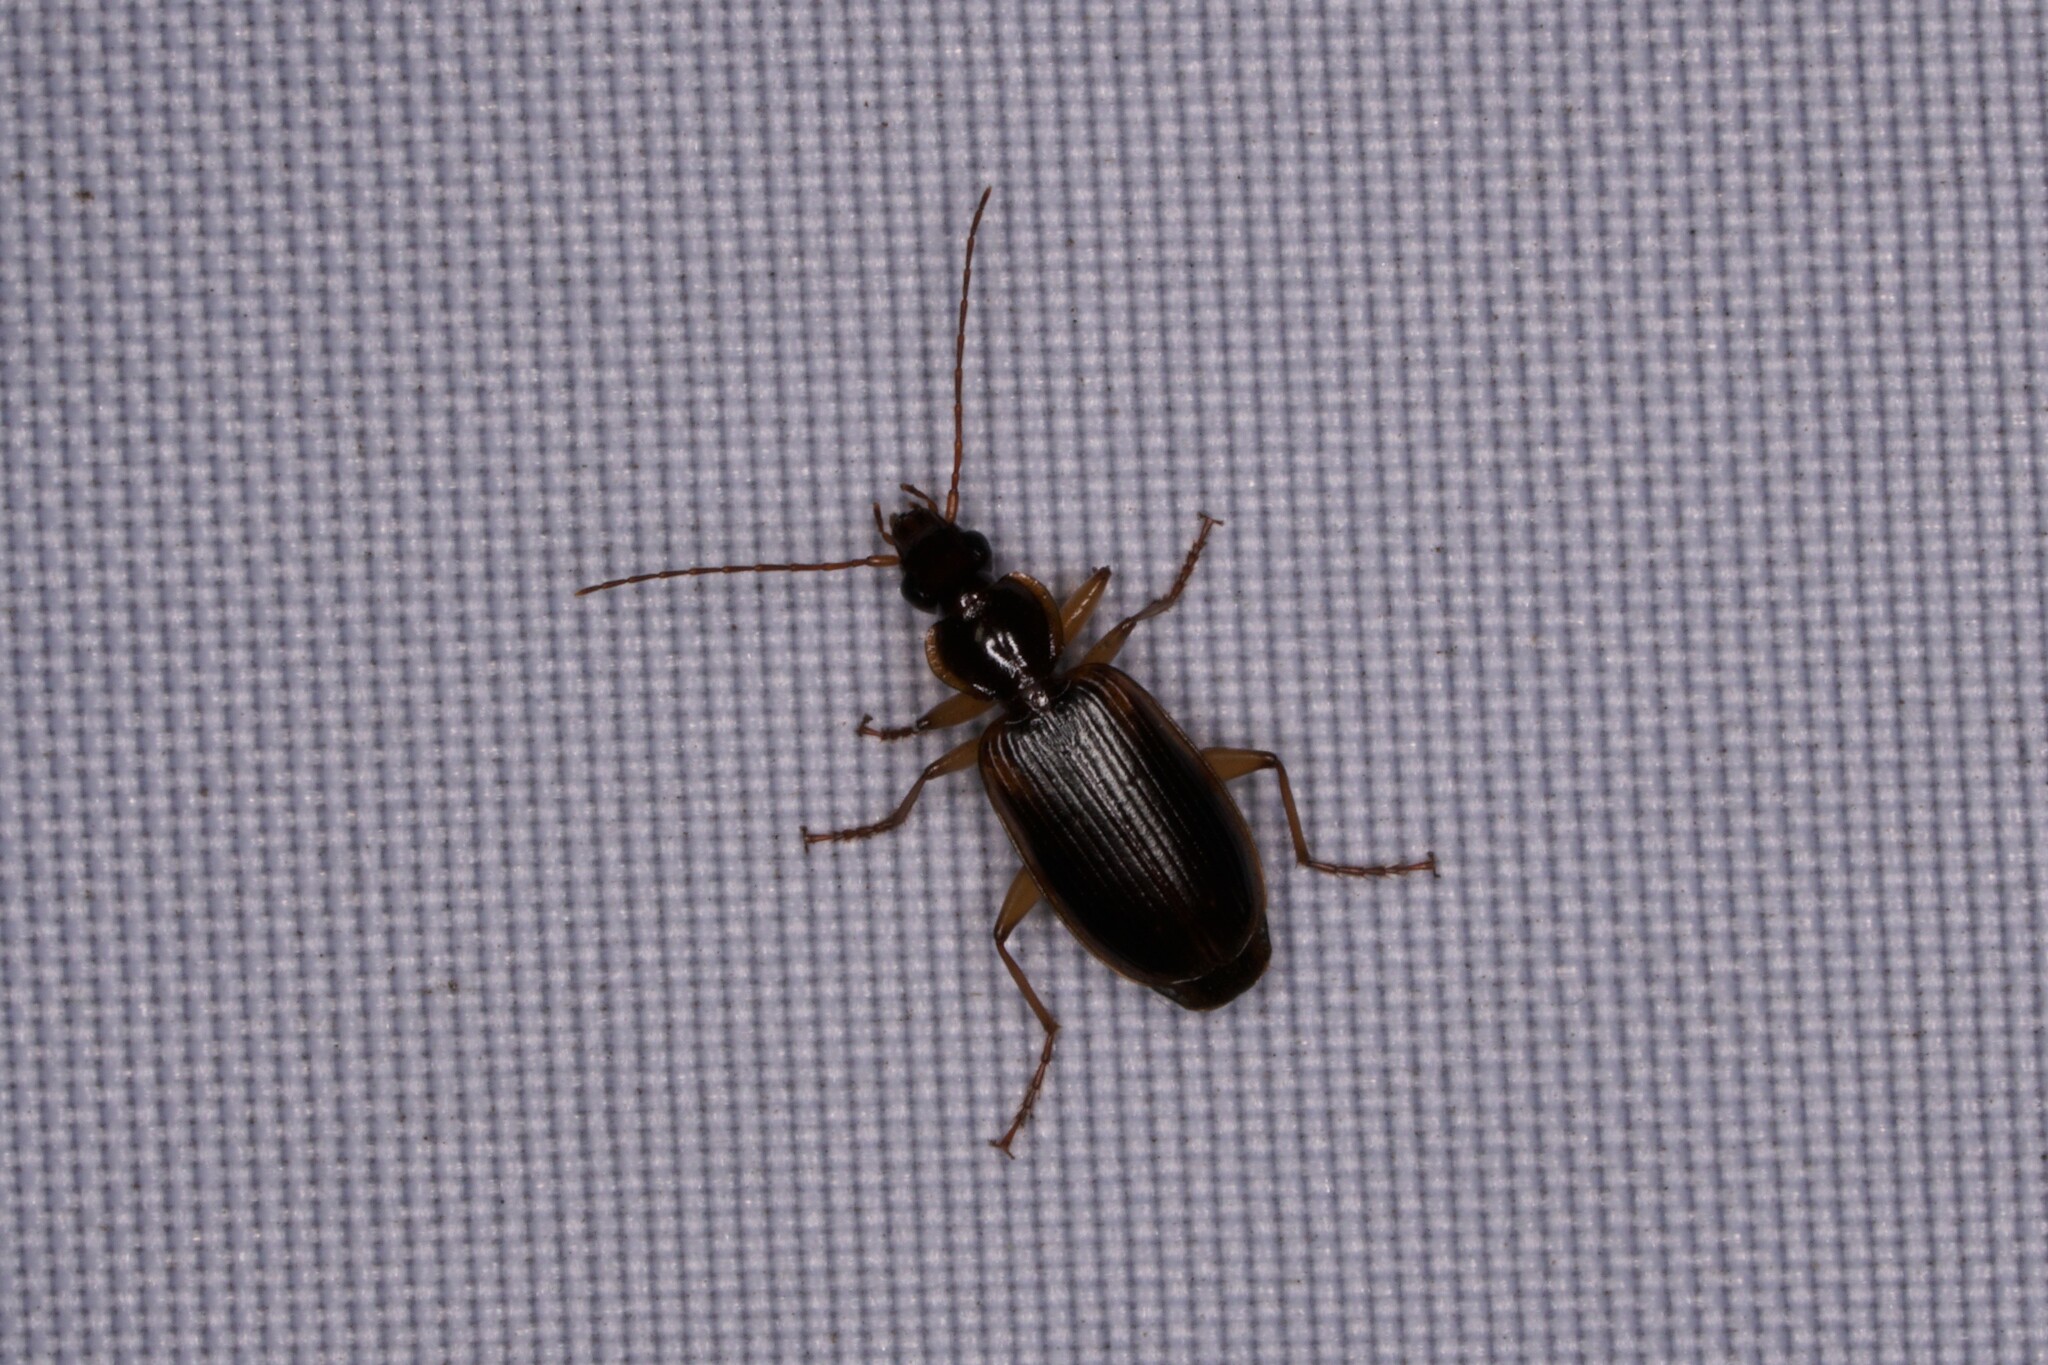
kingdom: Animalia
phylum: Arthropoda
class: Insecta
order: Coleoptera
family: Carabidae
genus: Pinacodera
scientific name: Pinacodera limbata
